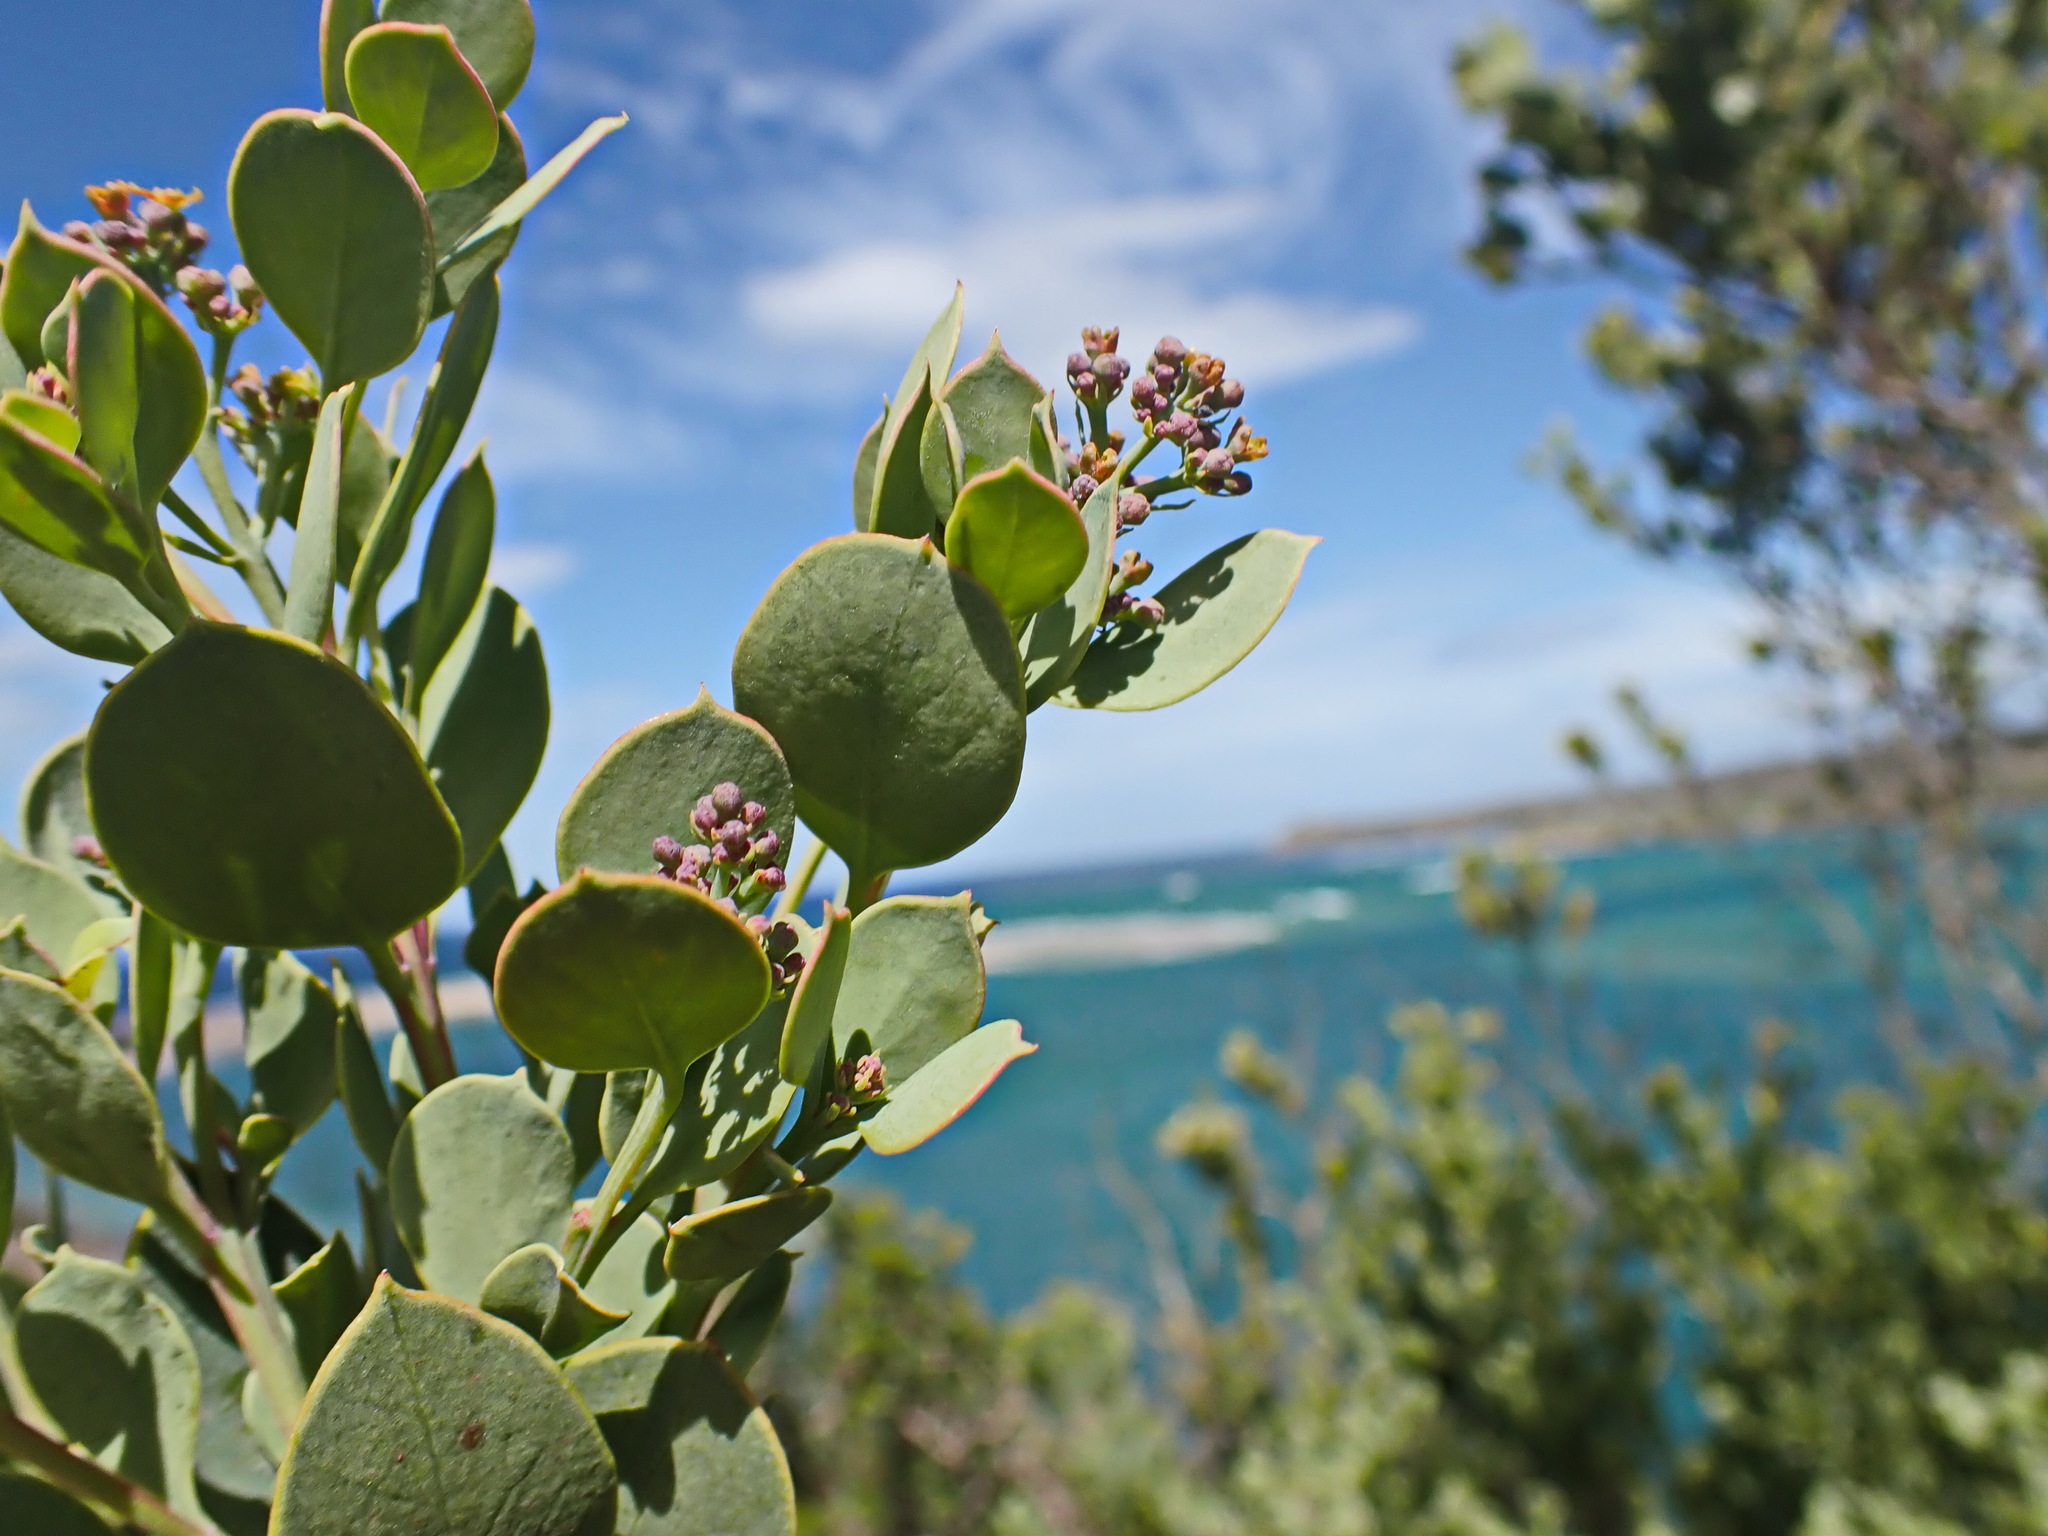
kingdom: Plantae
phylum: Tracheophyta
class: Magnoliopsida
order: Santalales
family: Santalaceae
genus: Osyris
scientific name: Osyris compressa
